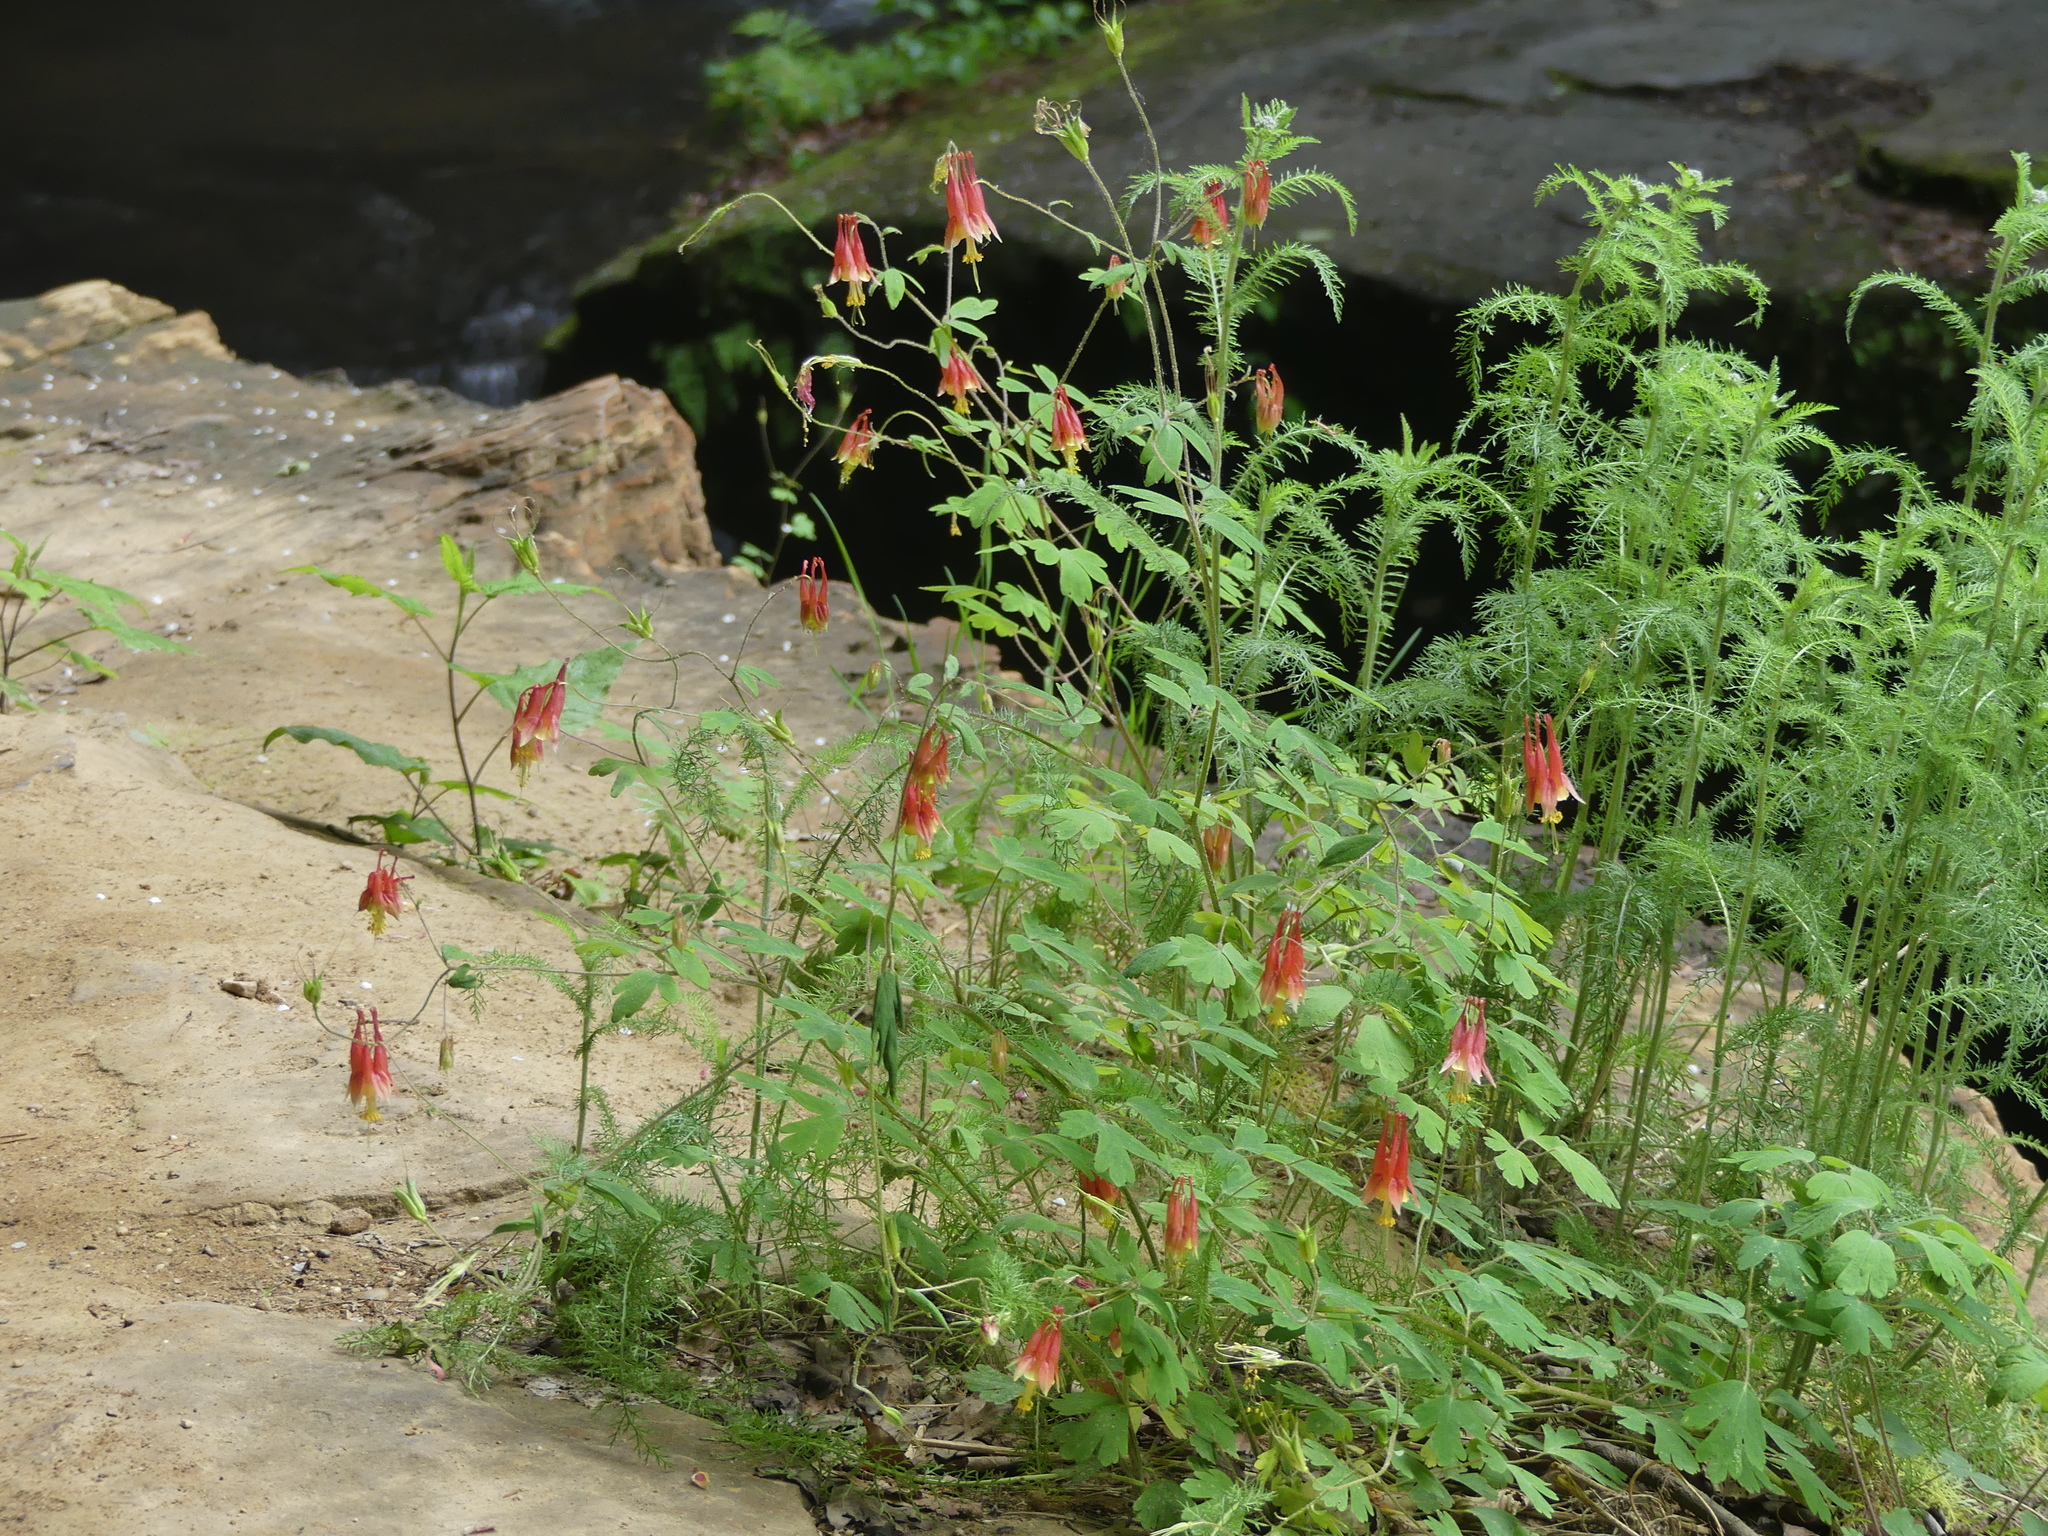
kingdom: Plantae
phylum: Tracheophyta
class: Magnoliopsida
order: Ranunculales
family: Ranunculaceae
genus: Aquilegia
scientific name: Aquilegia canadensis
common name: American columbine
